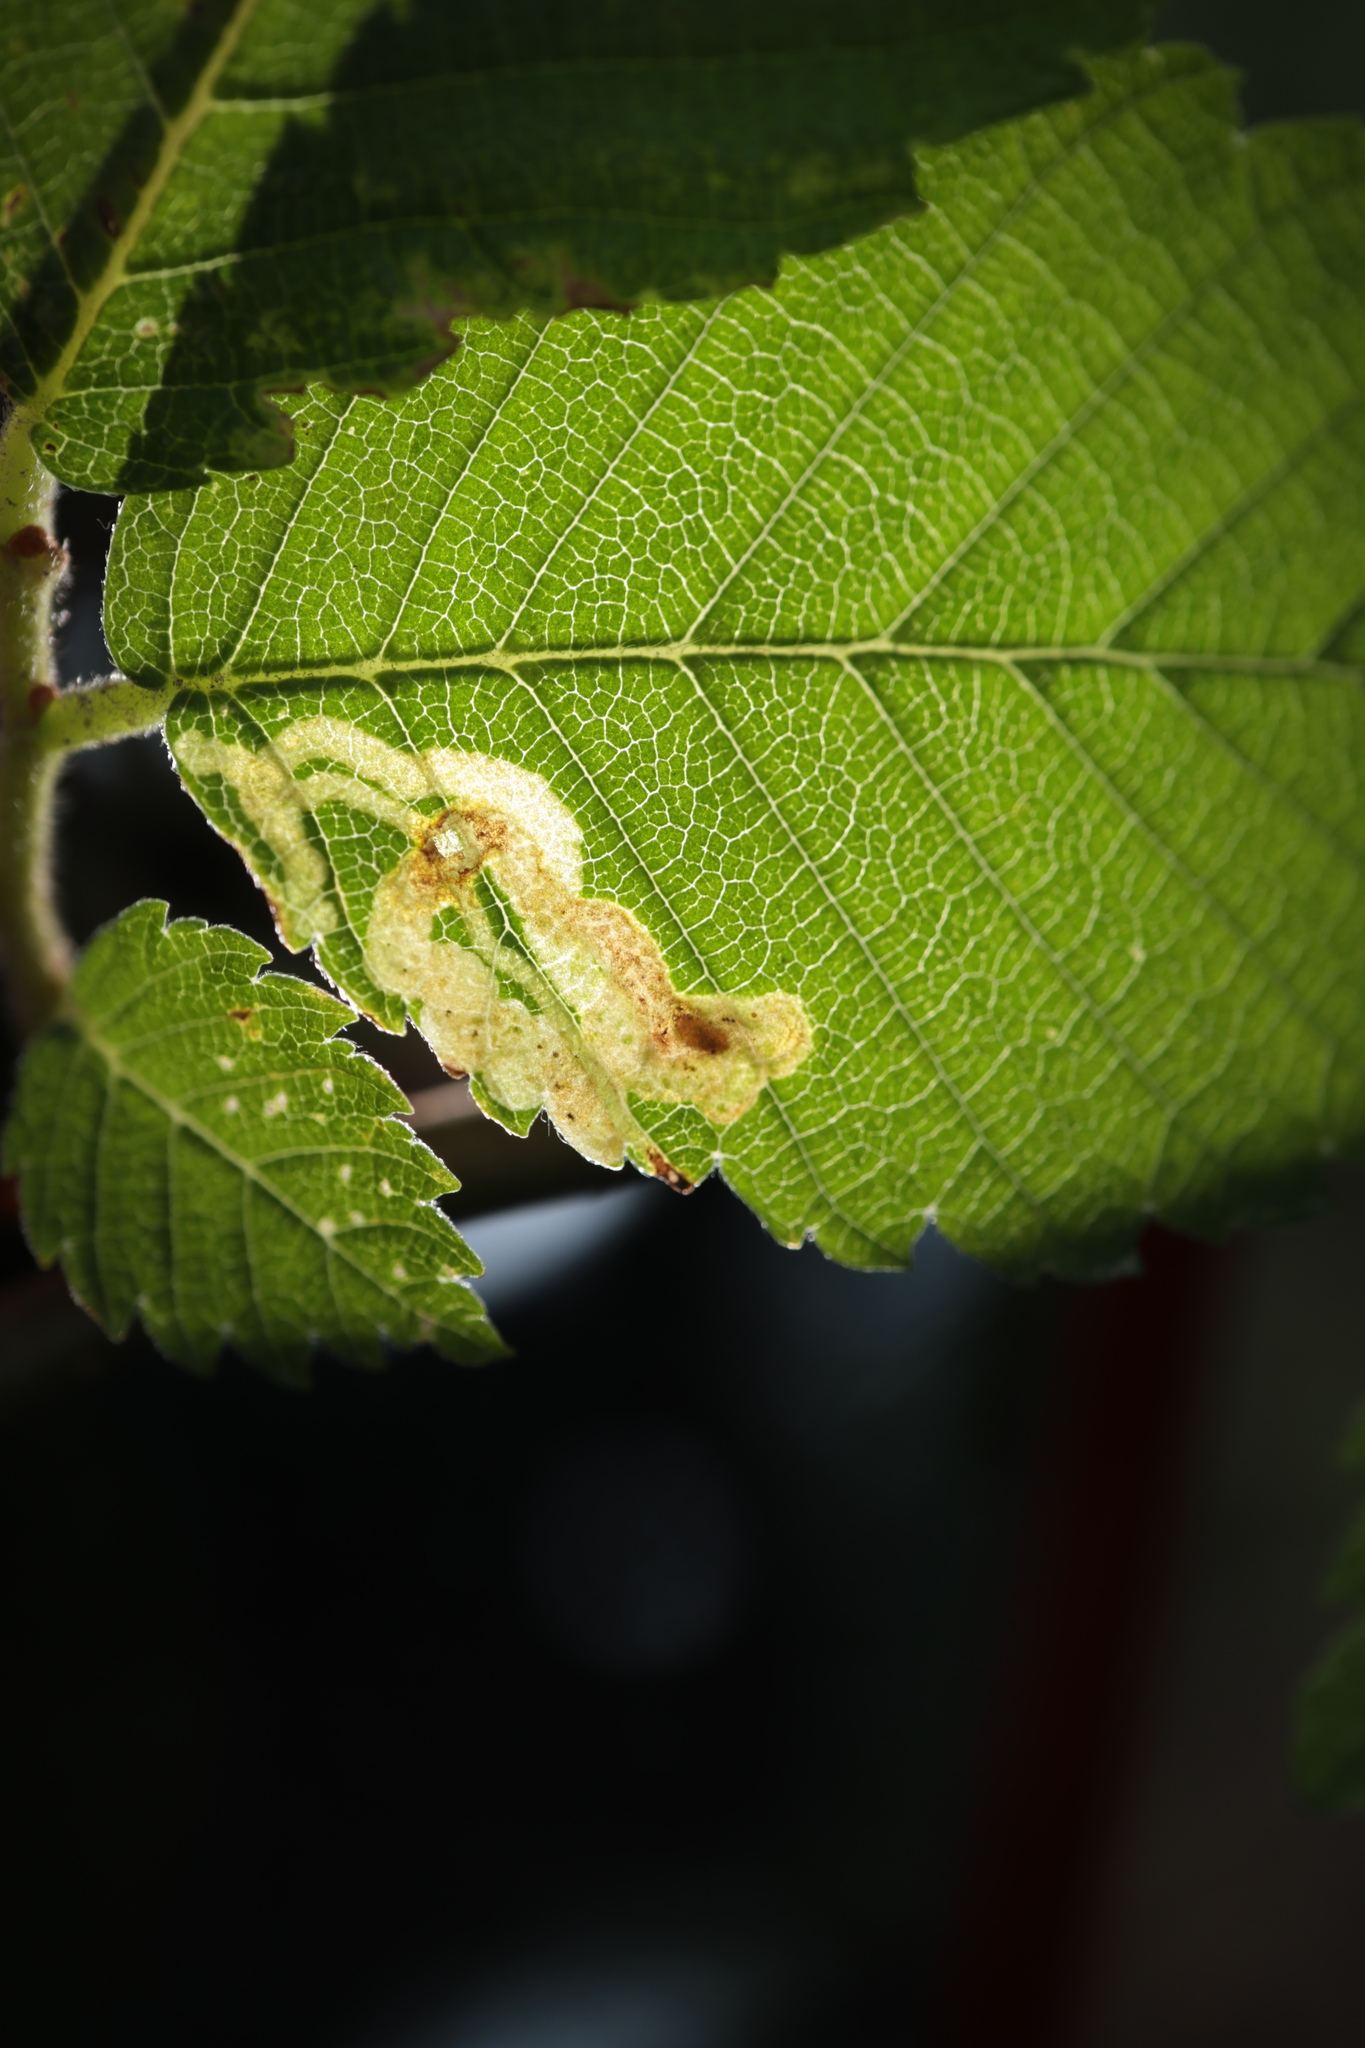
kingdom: Animalia
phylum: Arthropoda
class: Insecta
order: Diptera
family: Agromyzidae
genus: Agromyza
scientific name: Agromyza aristata
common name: Elm agromyzid leafminer
